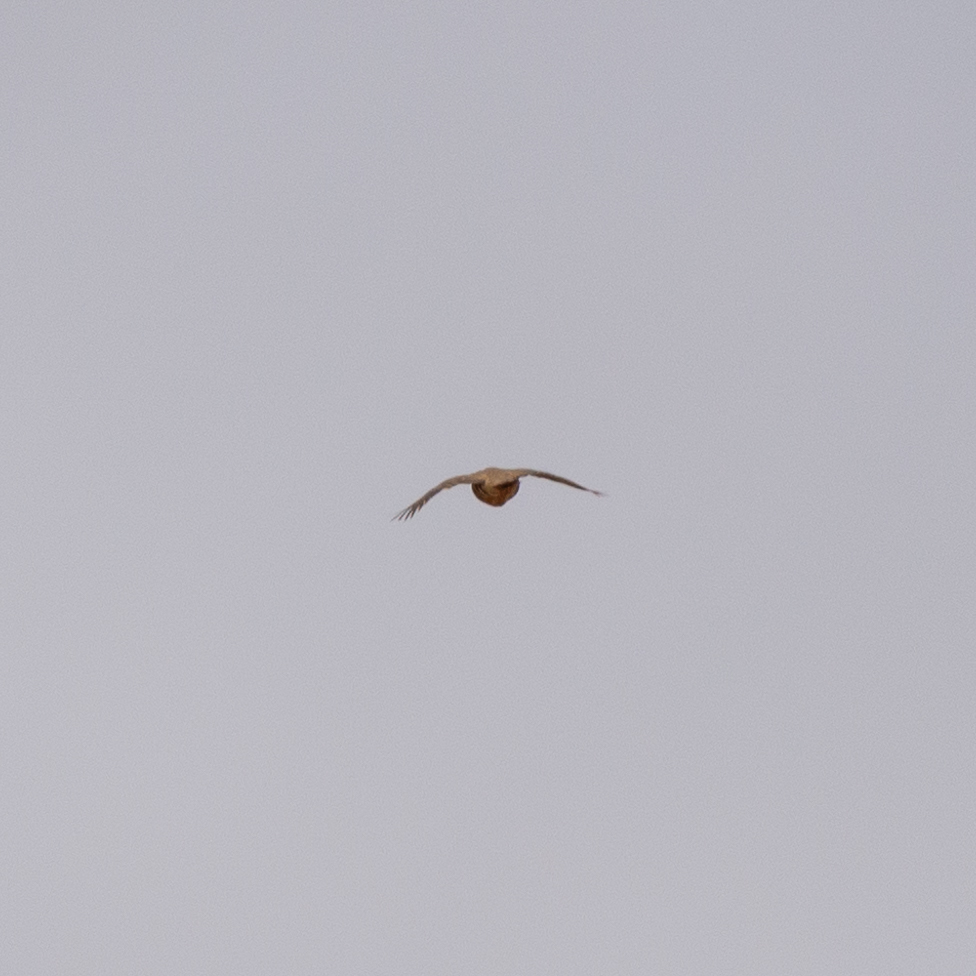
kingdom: Animalia
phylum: Chordata
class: Aves
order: Galliformes
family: Phasianidae
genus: Alectoris
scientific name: Alectoris rufa
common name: Red-legged partridge
